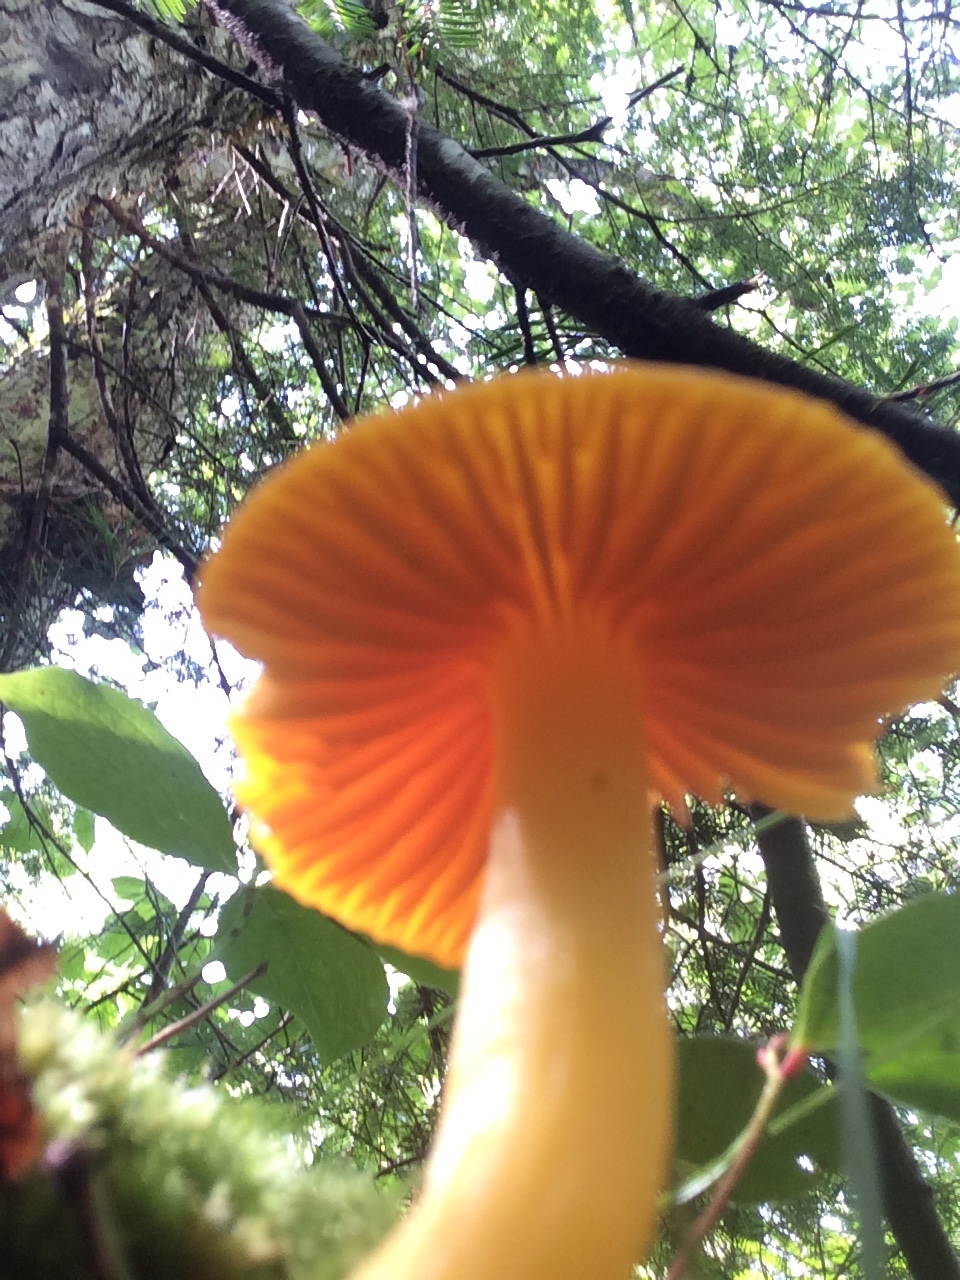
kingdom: Fungi
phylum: Basidiomycota
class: Agaricomycetes
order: Agaricales
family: Hygrophoraceae
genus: Humidicutis
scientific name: Humidicutis marginata
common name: Orange gilled waxcap
